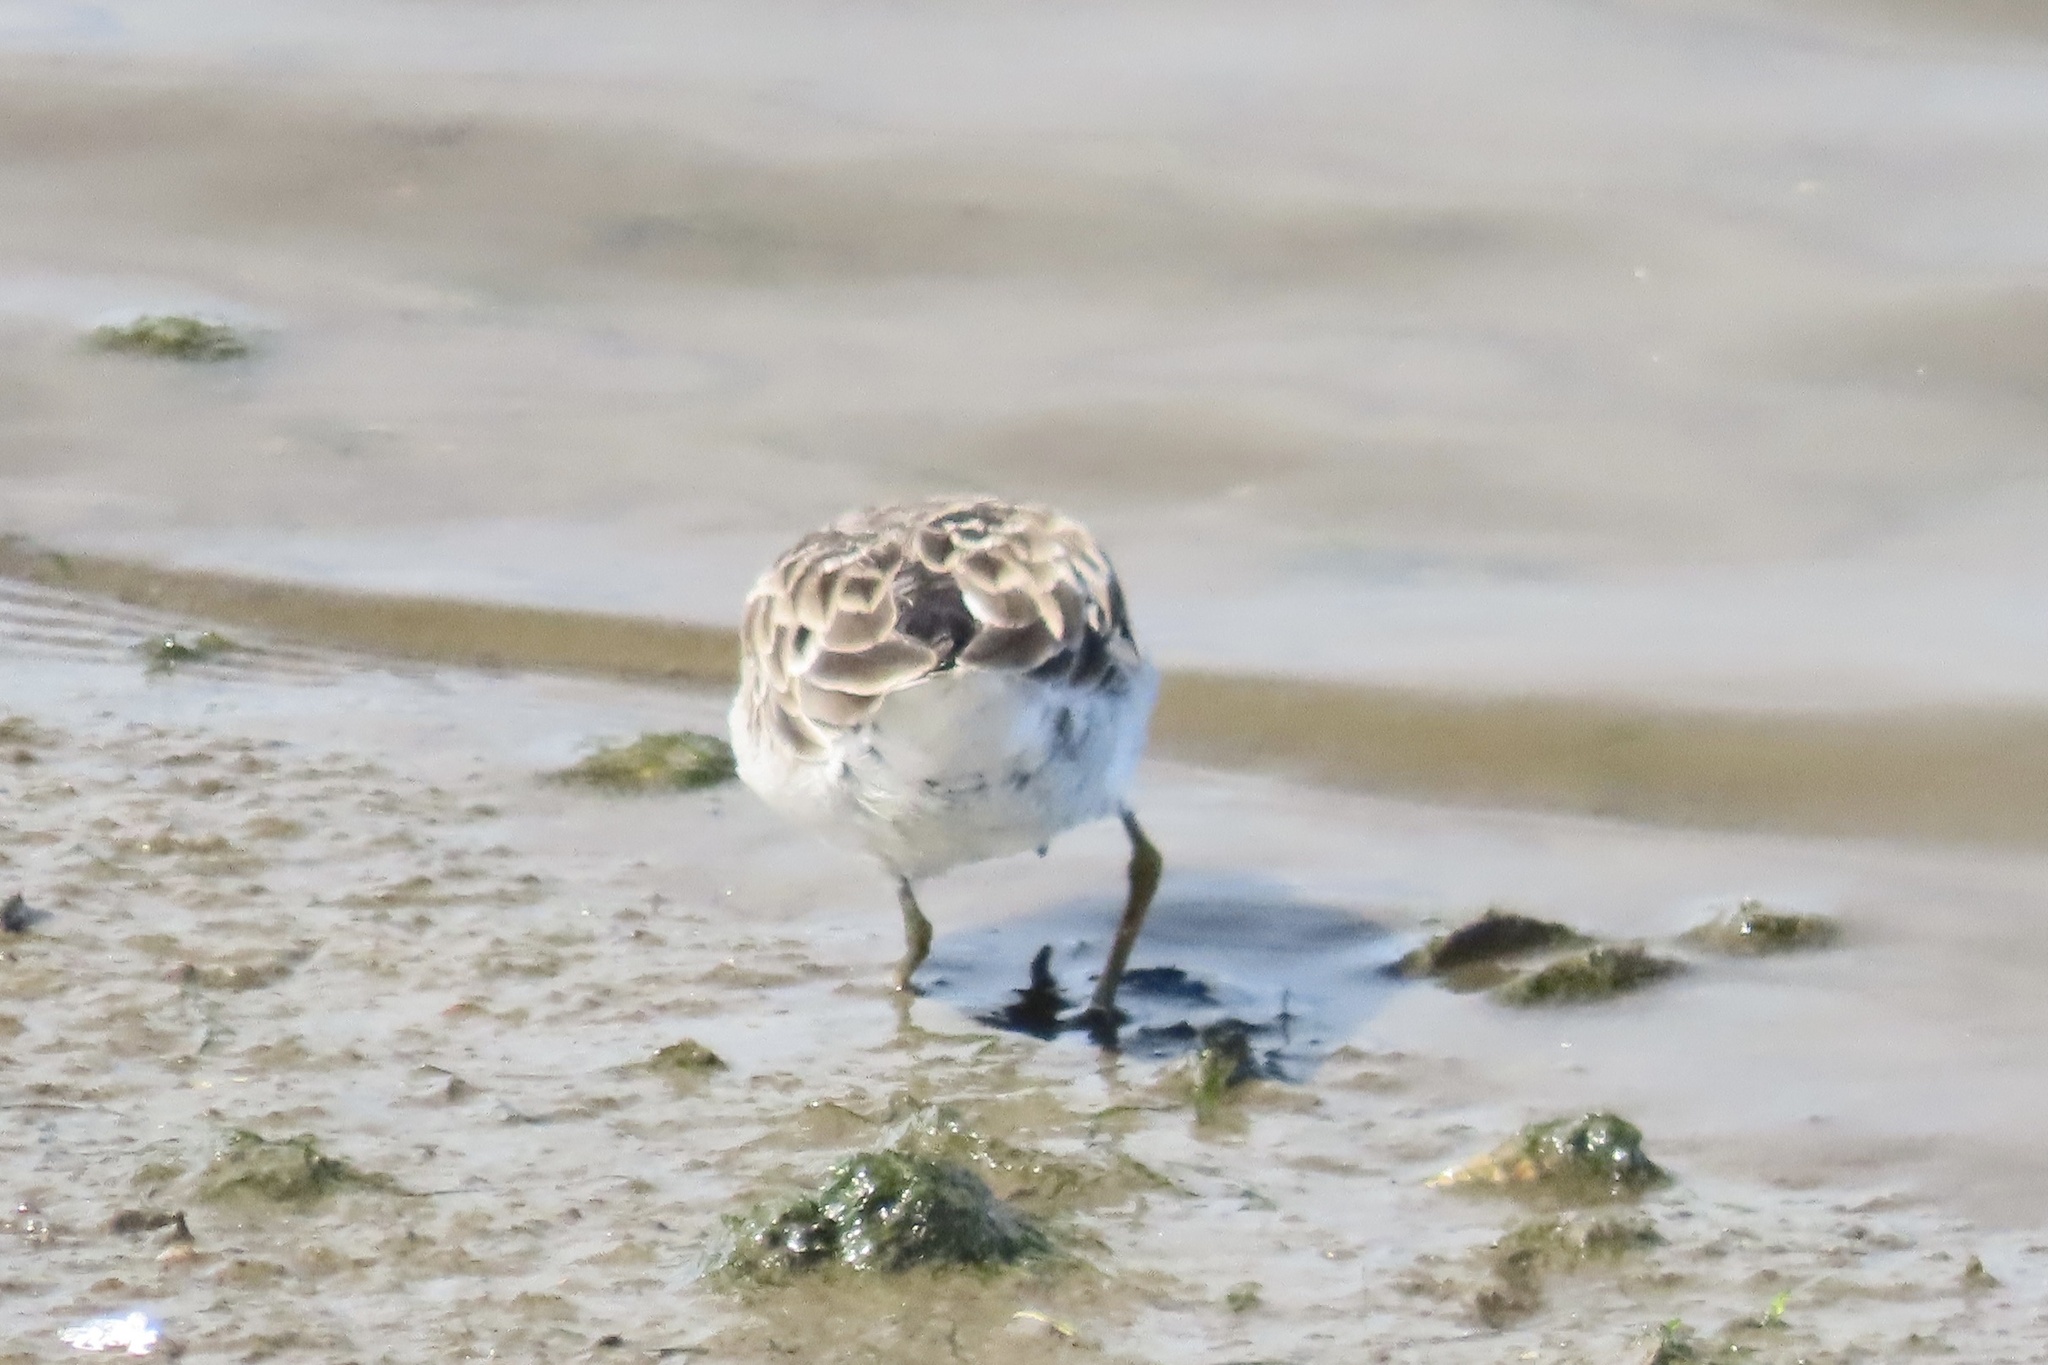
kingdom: Animalia
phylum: Chordata
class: Aves
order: Charadriiformes
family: Scolopacidae
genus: Calidris
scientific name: Calidris minutilla
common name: Least sandpiper
